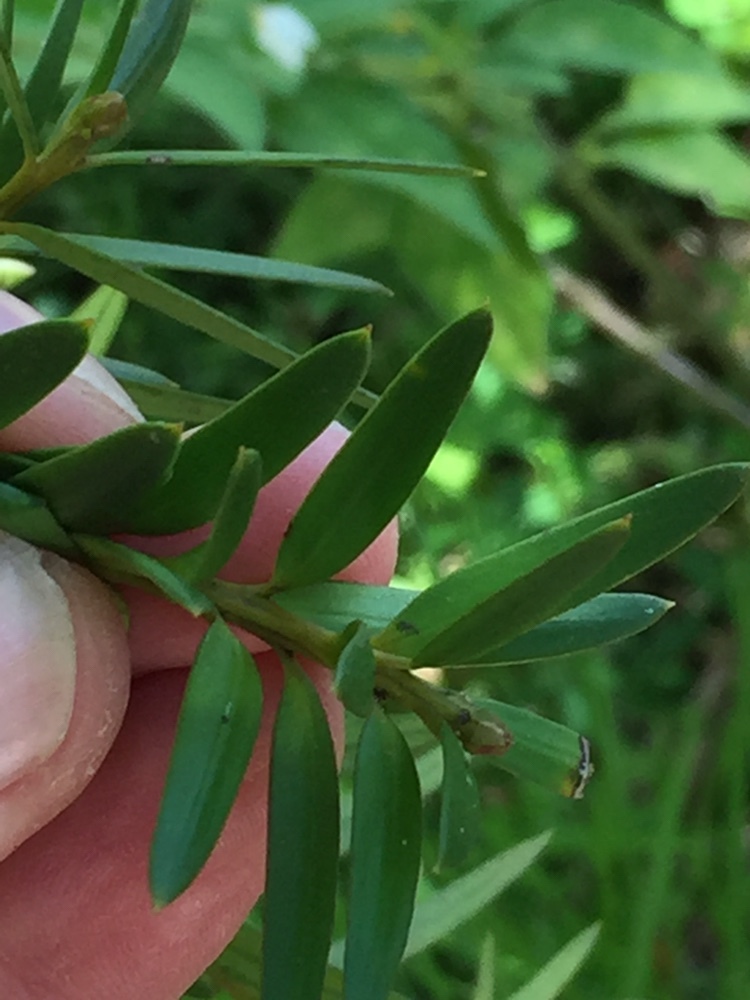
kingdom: Plantae
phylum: Tracheophyta
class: Pinopsida
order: Pinales
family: Podocarpaceae
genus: Podocarpus
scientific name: Podocarpus laetus
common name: Hall's totara
